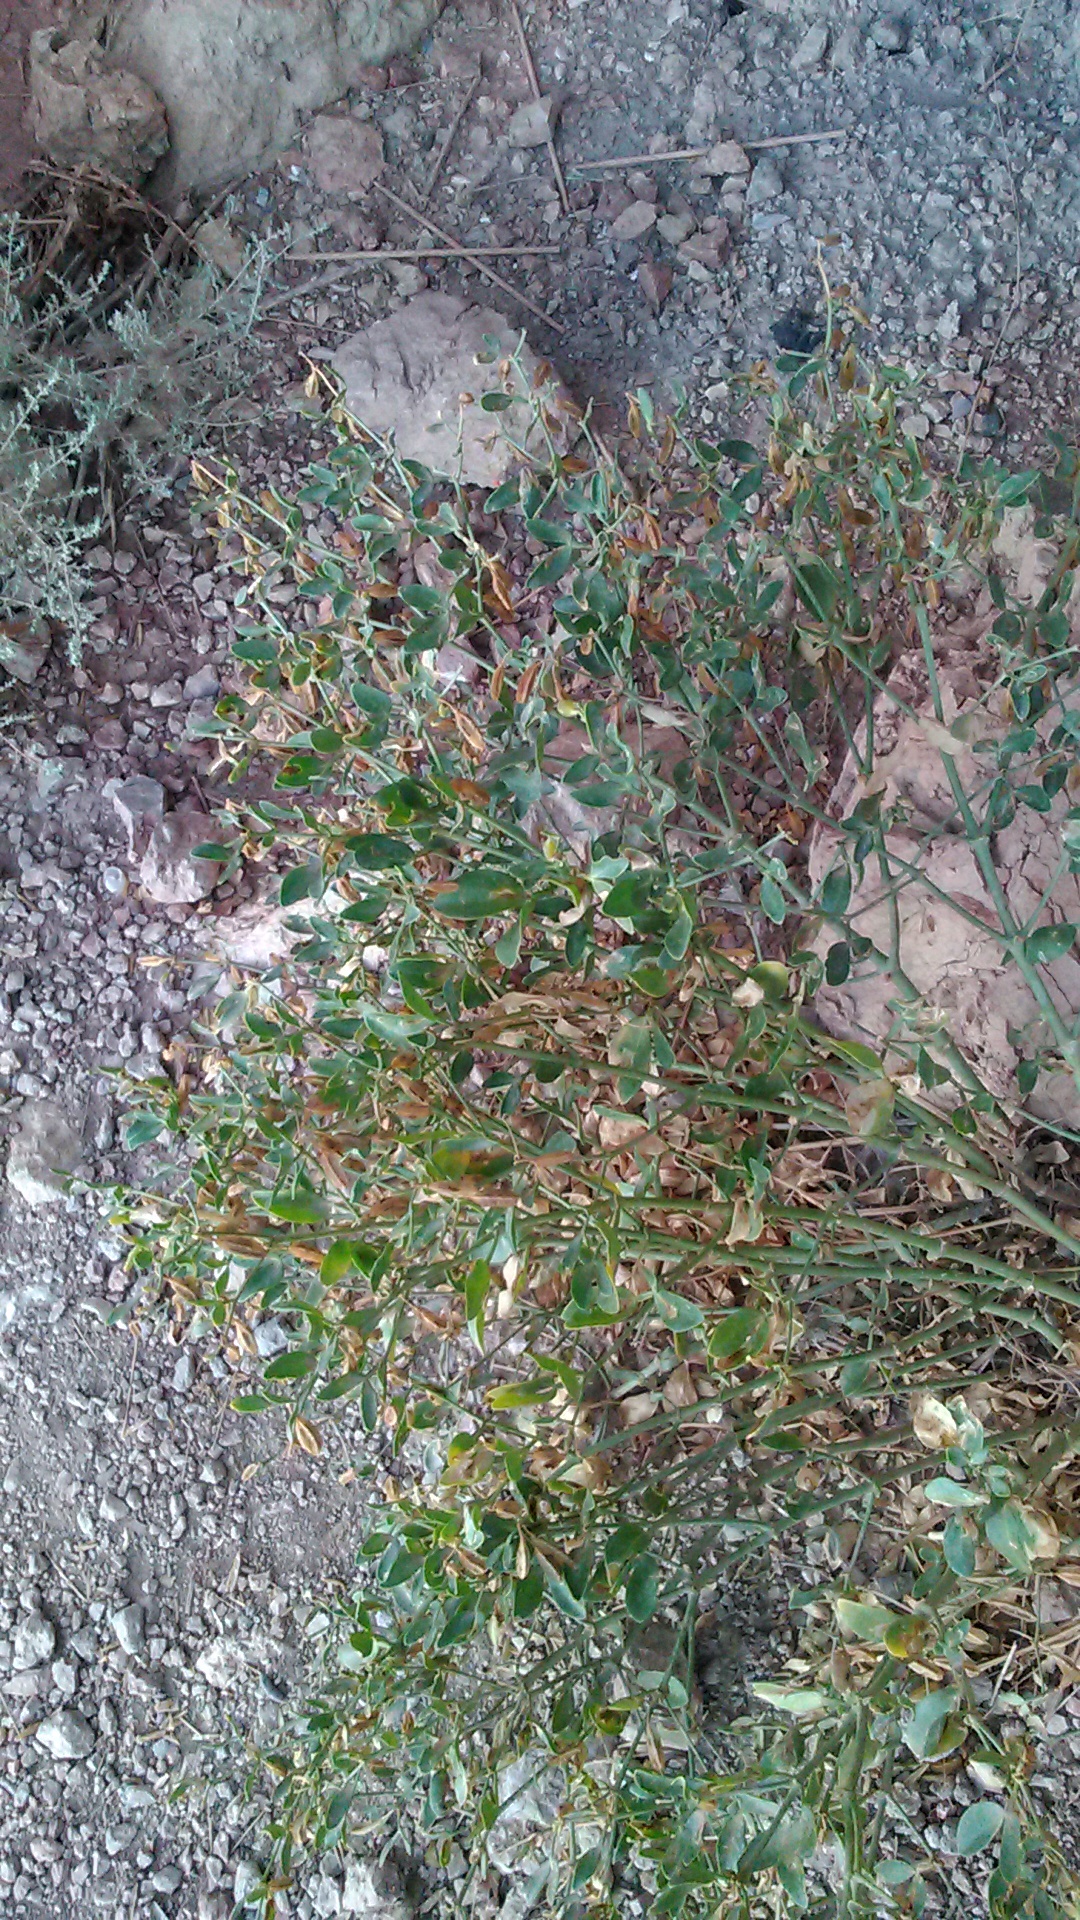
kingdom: Plantae
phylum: Tracheophyta
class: Magnoliopsida
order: Zygophyllales
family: Zygophyllaceae
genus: Zygophyllum
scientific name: Zygophyllum fabago
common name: Syrian beancaper
